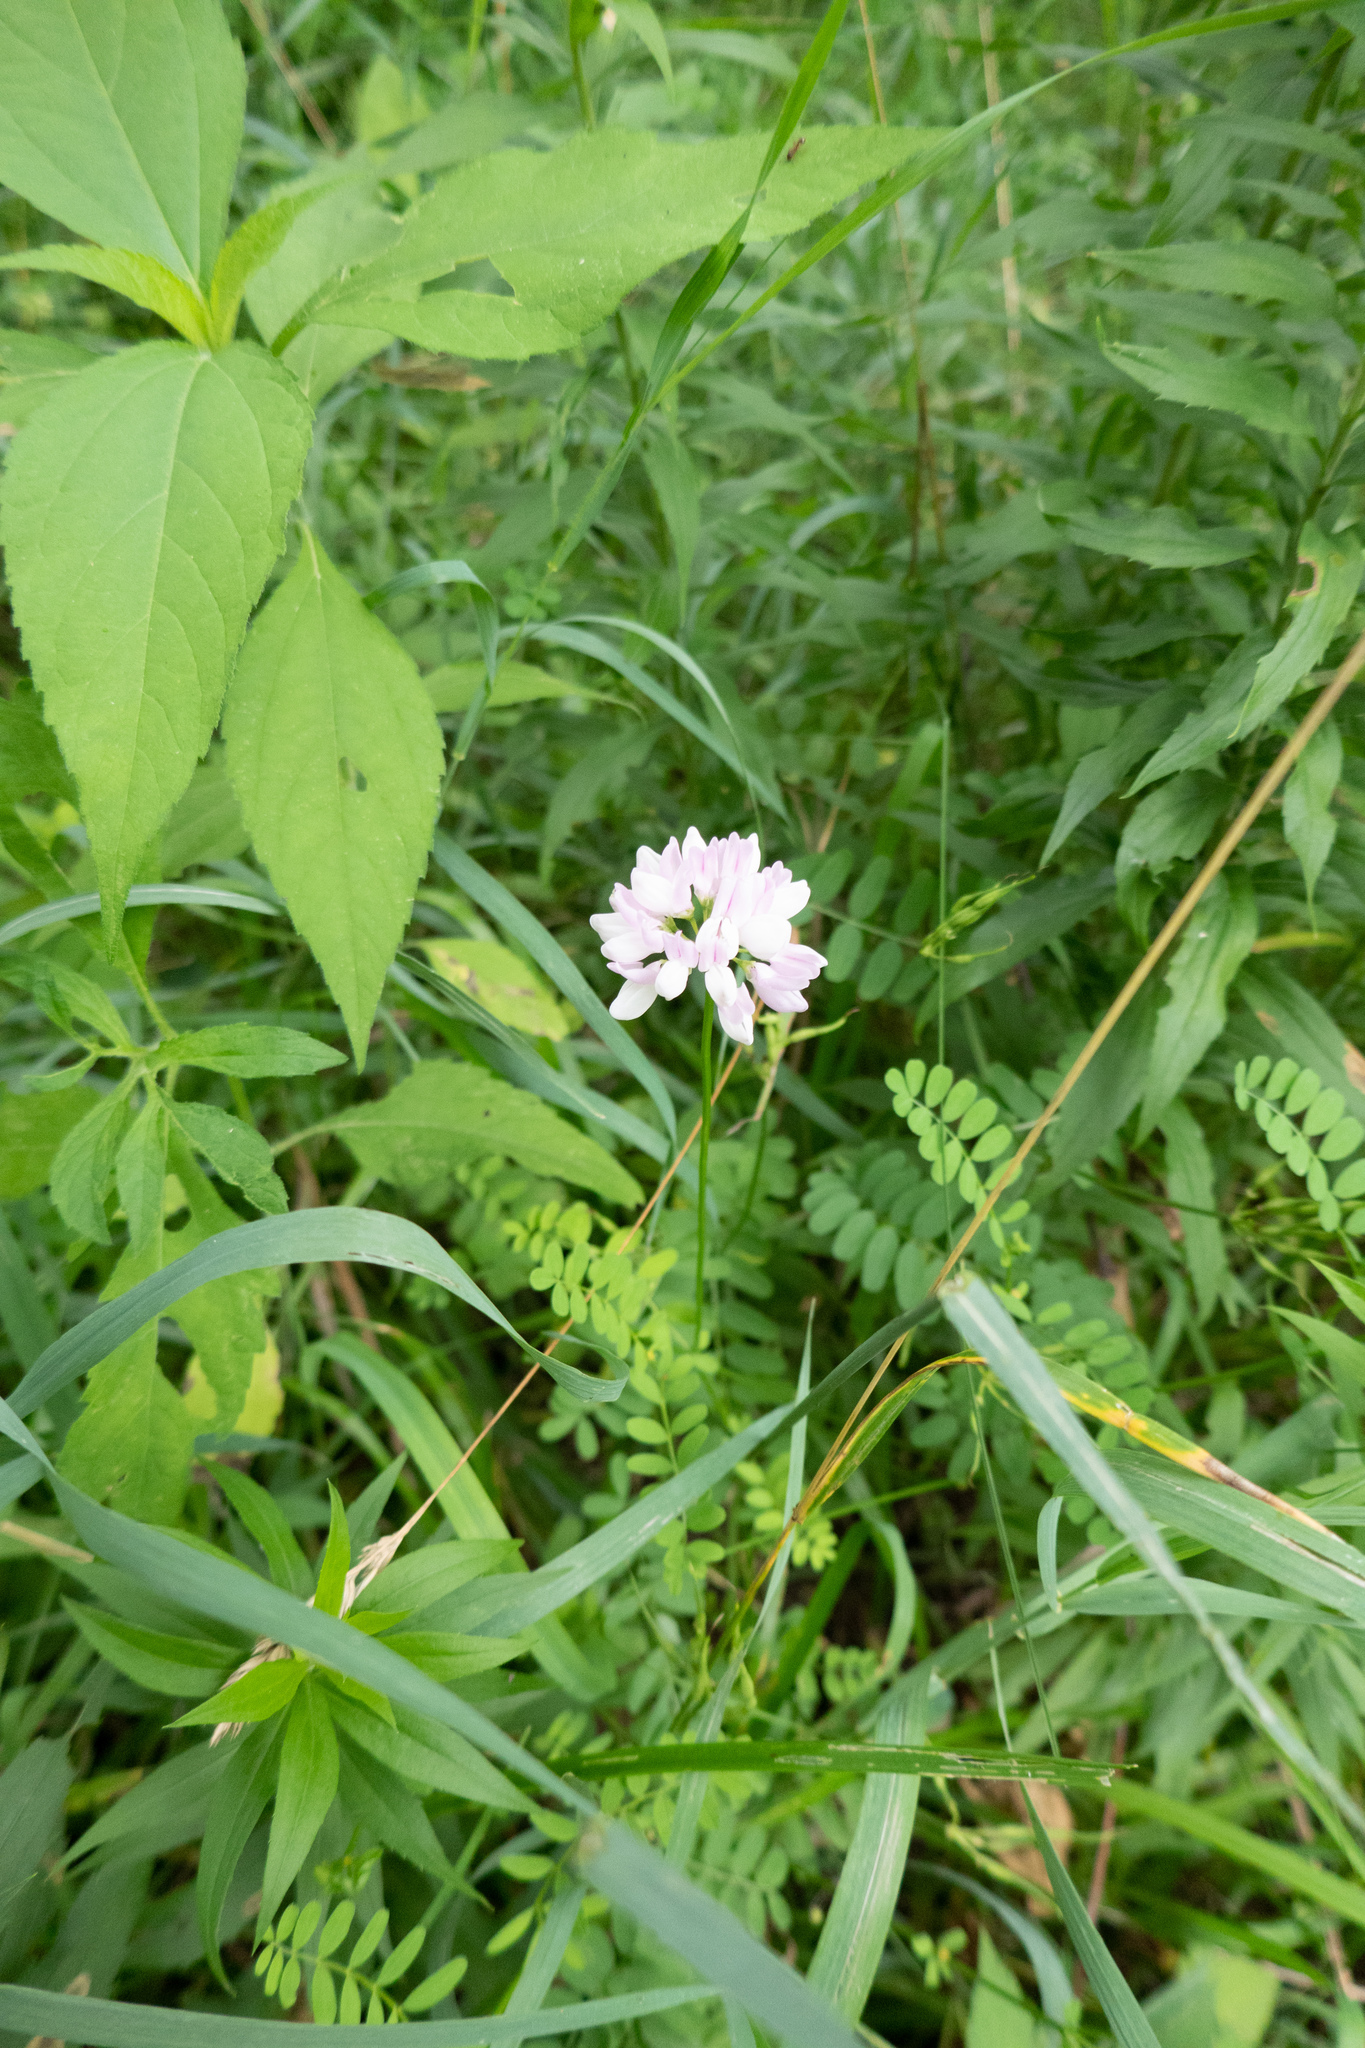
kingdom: Plantae
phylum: Tracheophyta
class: Magnoliopsida
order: Fabales
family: Fabaceae
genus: Coronilla
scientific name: Coronilla varia
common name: Crownvetch
